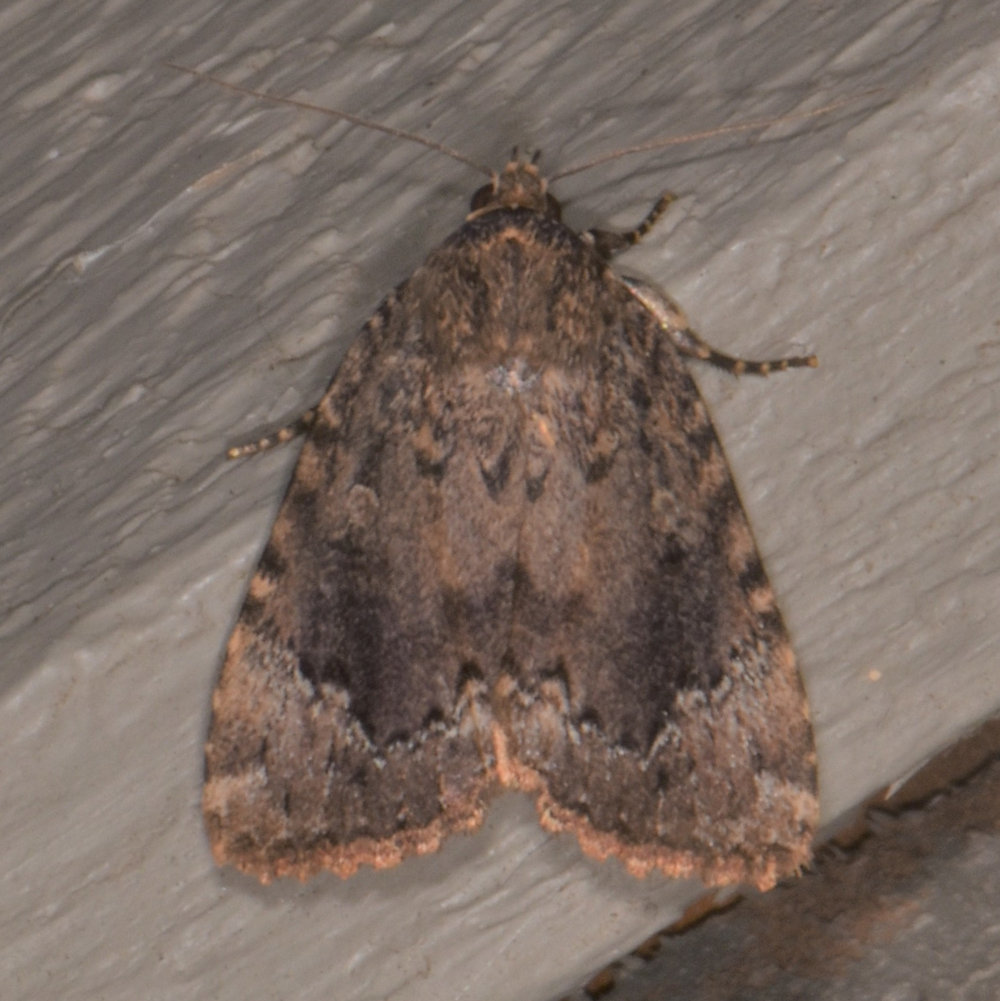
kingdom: Animalia
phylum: Arthropoda
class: Insecta
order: Lepidoptera
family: Noctuidae
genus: Amphipyra
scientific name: Amphipyra pyramidoides
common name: American copper underwing
